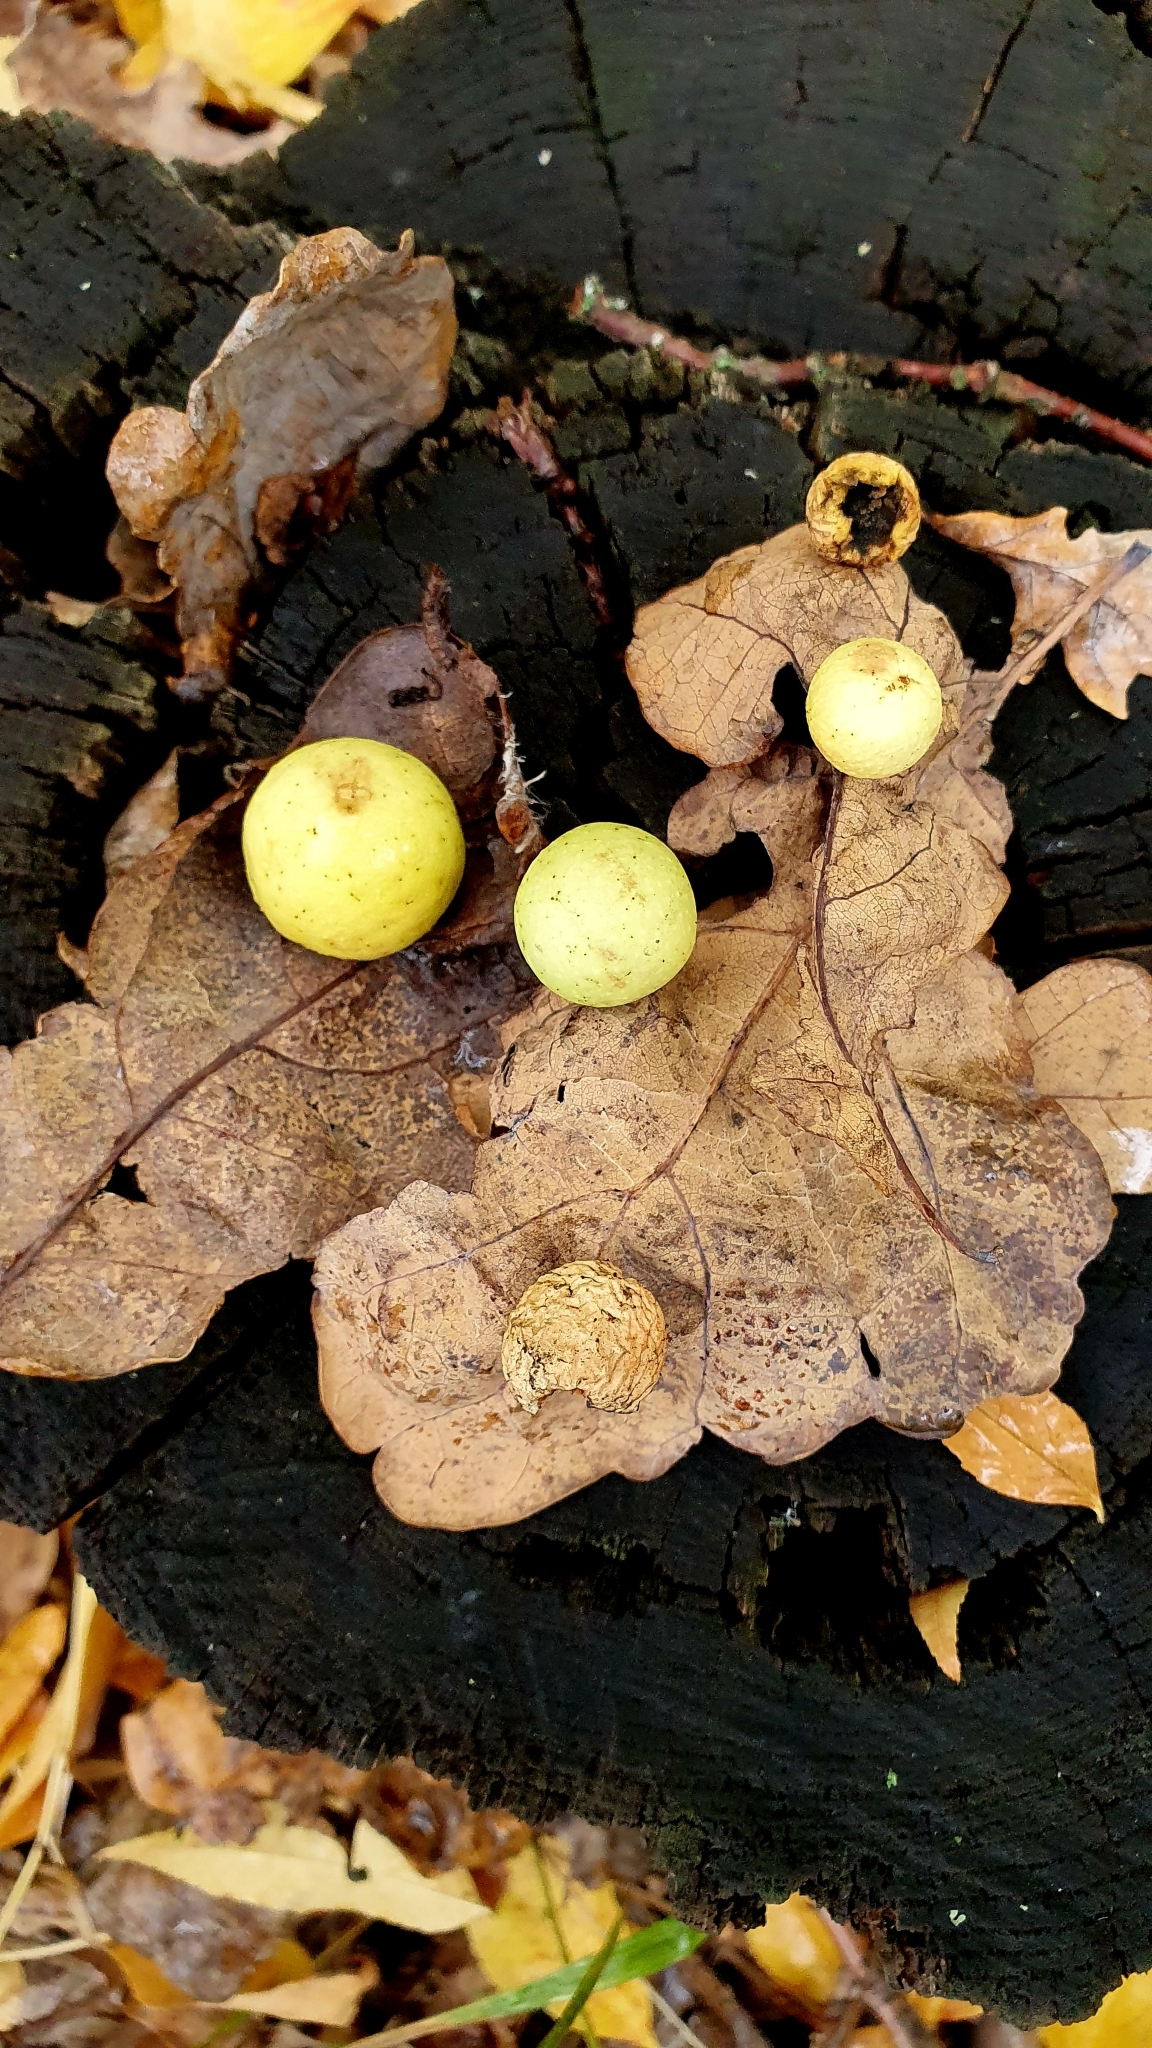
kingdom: Animalia
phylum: Arthropoda
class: Insecta
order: Hymenoptera
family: Cynipidae
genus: Cynips
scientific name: Cynips quercusfolii
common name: Cherry gall
